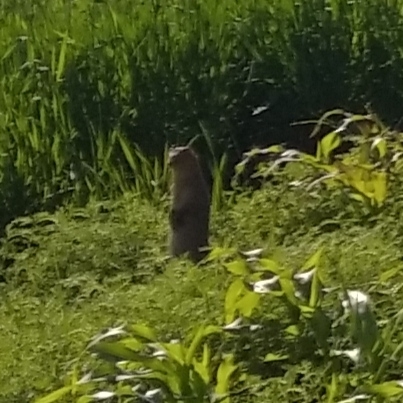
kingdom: Animalia
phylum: Chordata
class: Mammalia
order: Carnivora
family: Herpestidae
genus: Herpestes
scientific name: Herpestes edwardsi
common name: Indian gray mongoose
